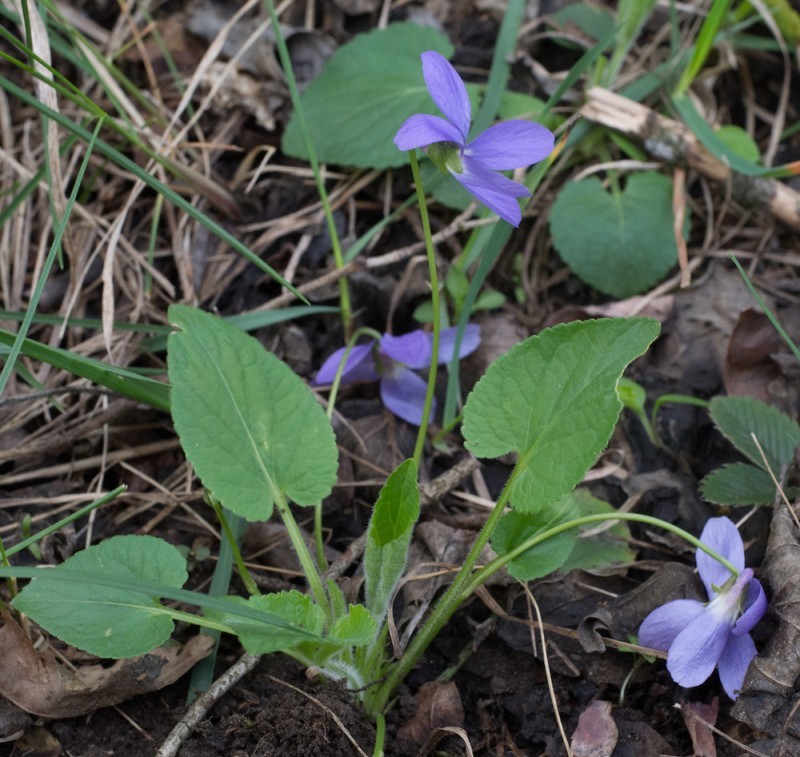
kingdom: Plantae
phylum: Tracheophyta
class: Magnoliopsida
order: Malpighiales
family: Violaceae
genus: Viola
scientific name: Viola hirta
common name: Hairy violet
